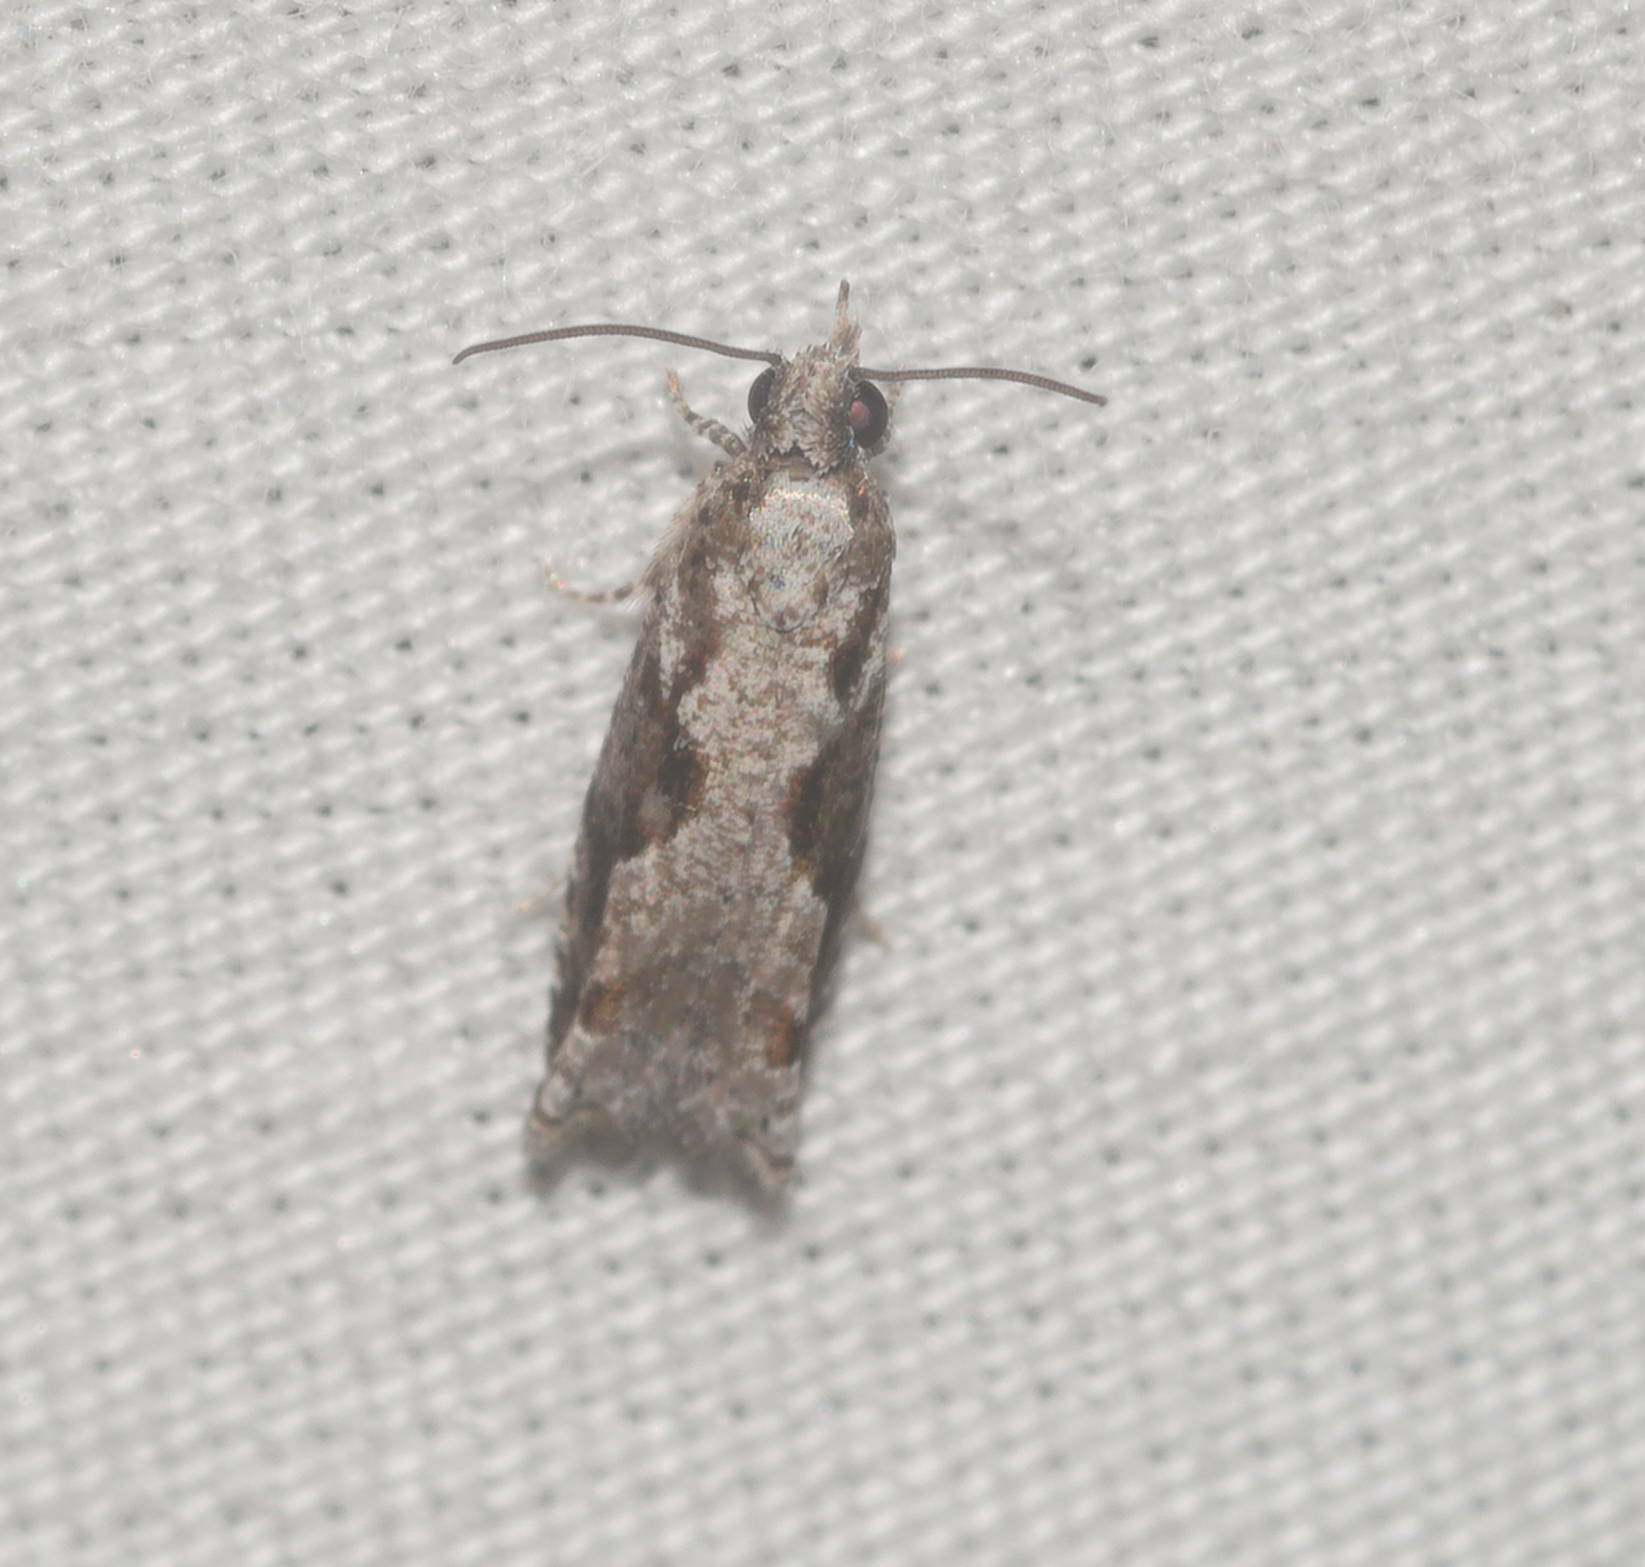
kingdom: Animalia
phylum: Arthropoda
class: Insecta
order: Lepidoptera
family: Tortricidae
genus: Eccoptocera
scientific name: Eccoptocera foetorivorans
